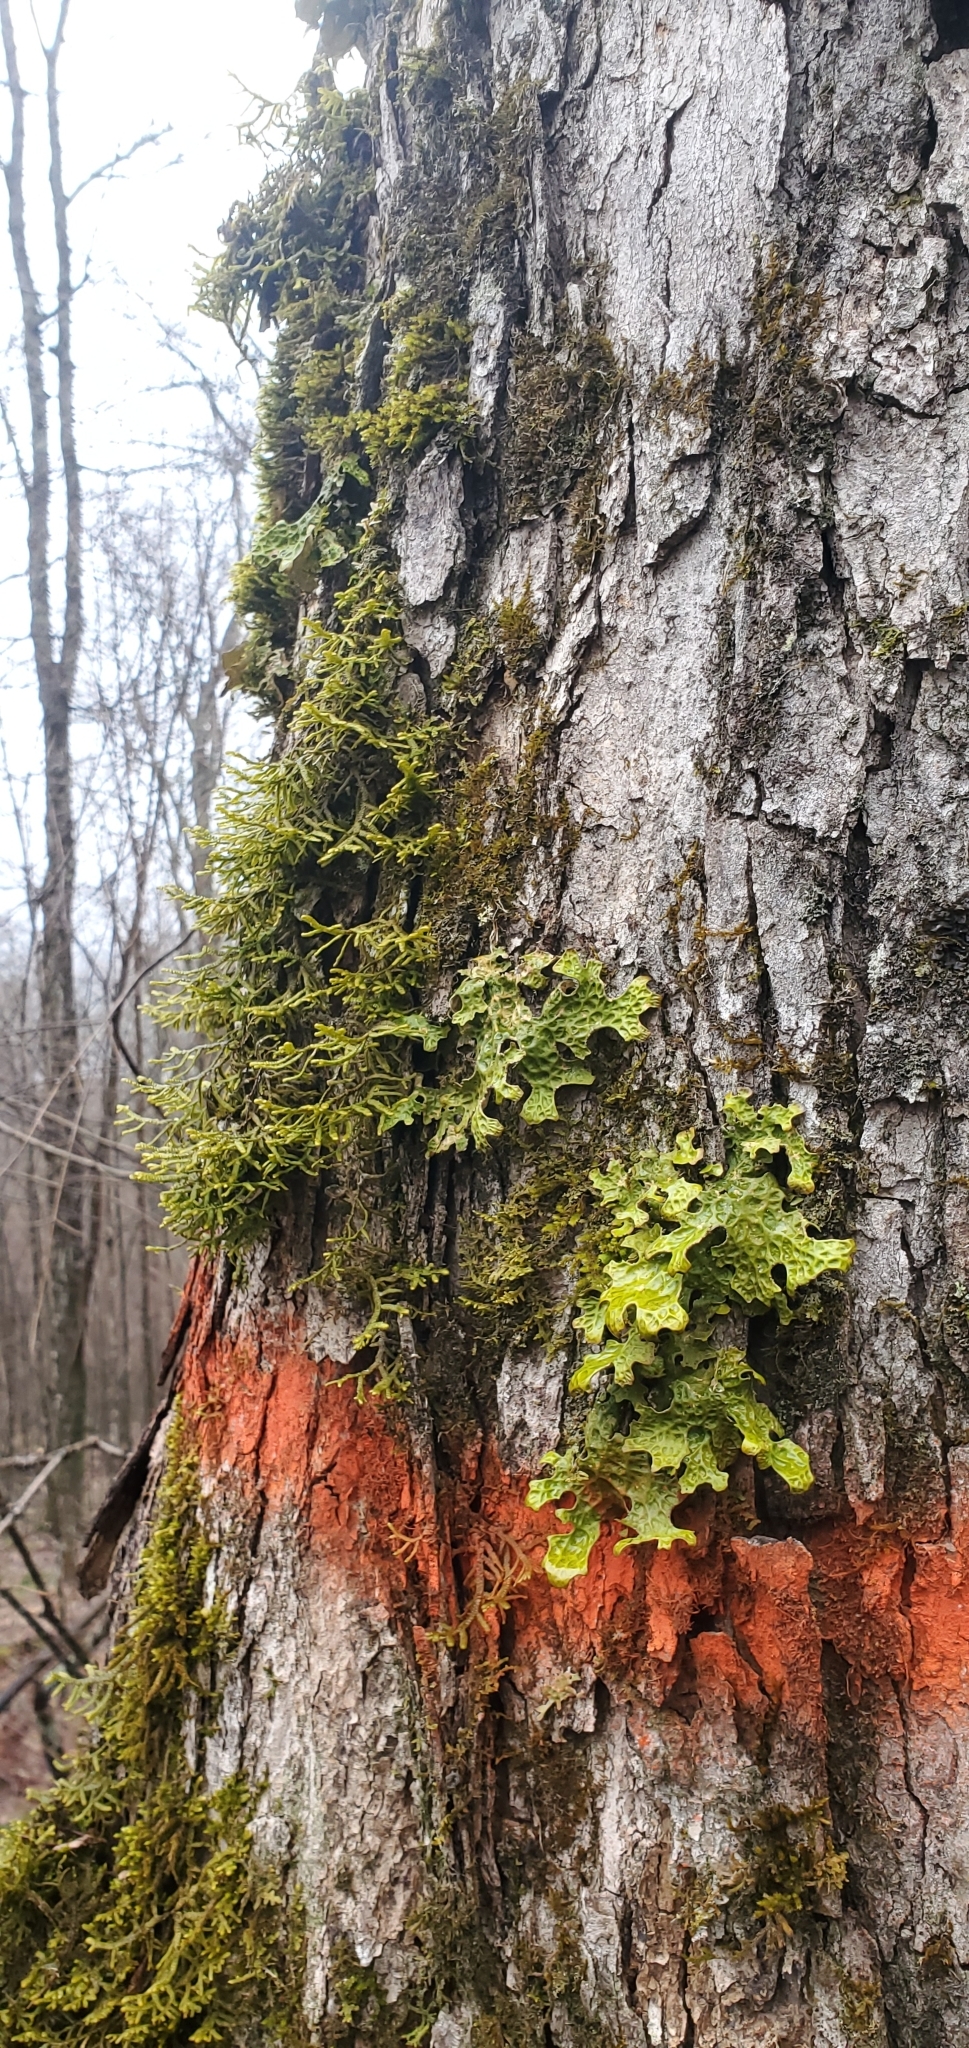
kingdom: Fungi
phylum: Ascomycota
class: Lecanoromycetes
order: Peltigerales
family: Lobariaceae
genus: Lobaria
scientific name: Lobaria pulmonaria
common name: Lungwort
